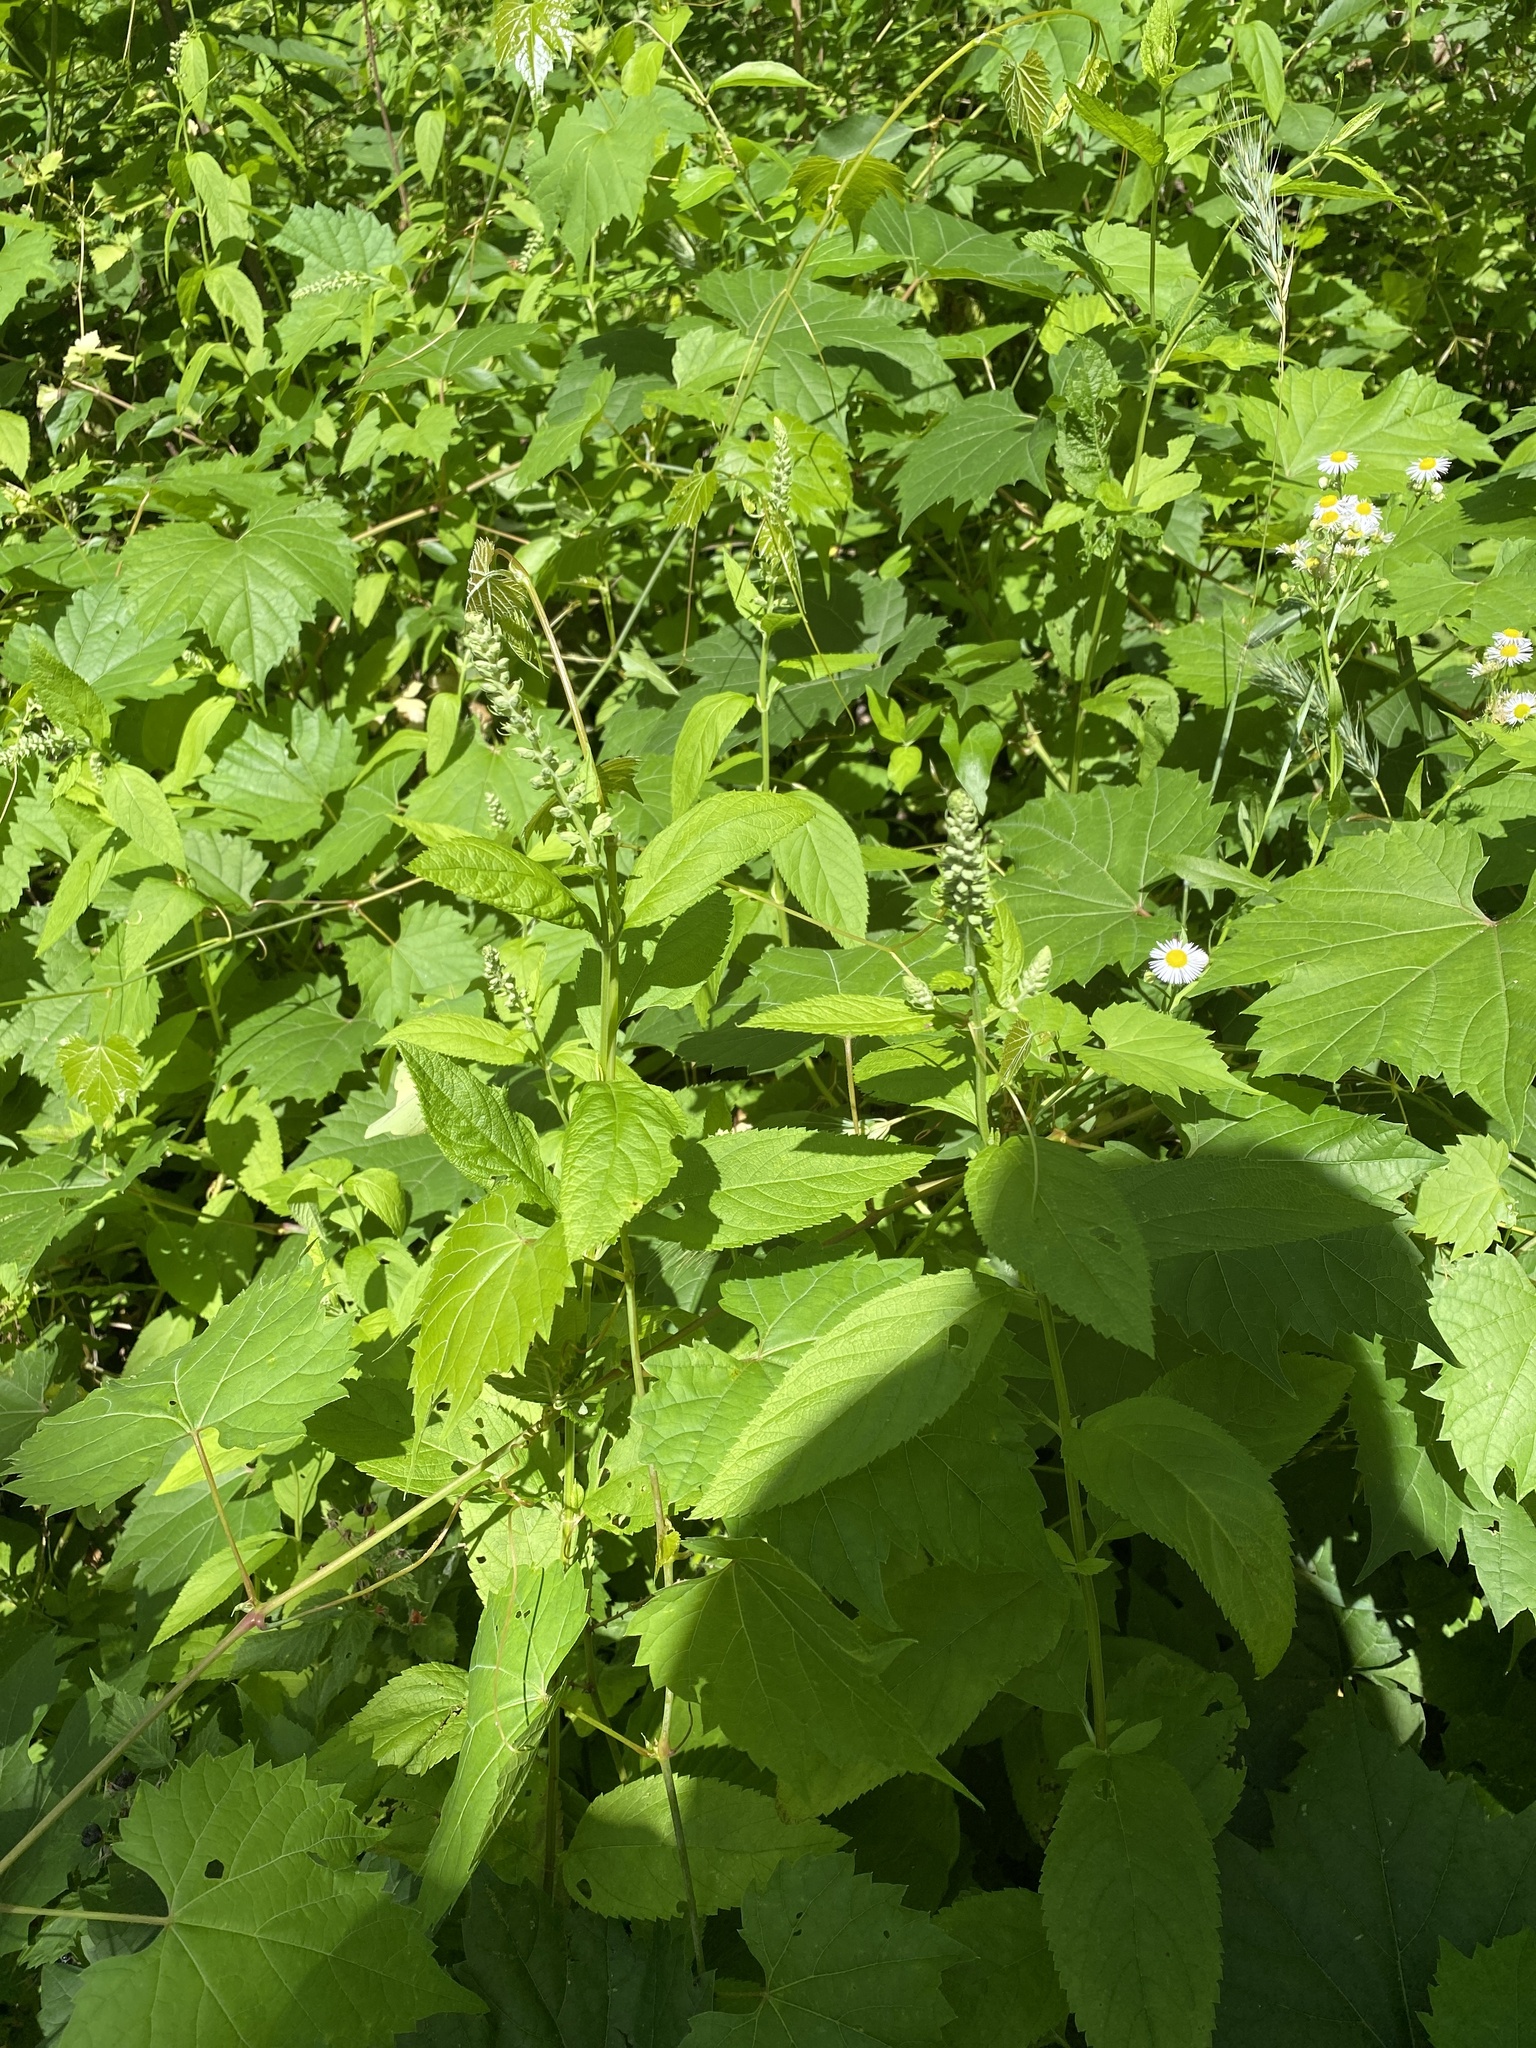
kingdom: Plantae
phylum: Tracheophyta
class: Magnoliopsida
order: Lamiales
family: Lamiaceae
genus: Teucrium
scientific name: Teucrium canadense
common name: American germander
